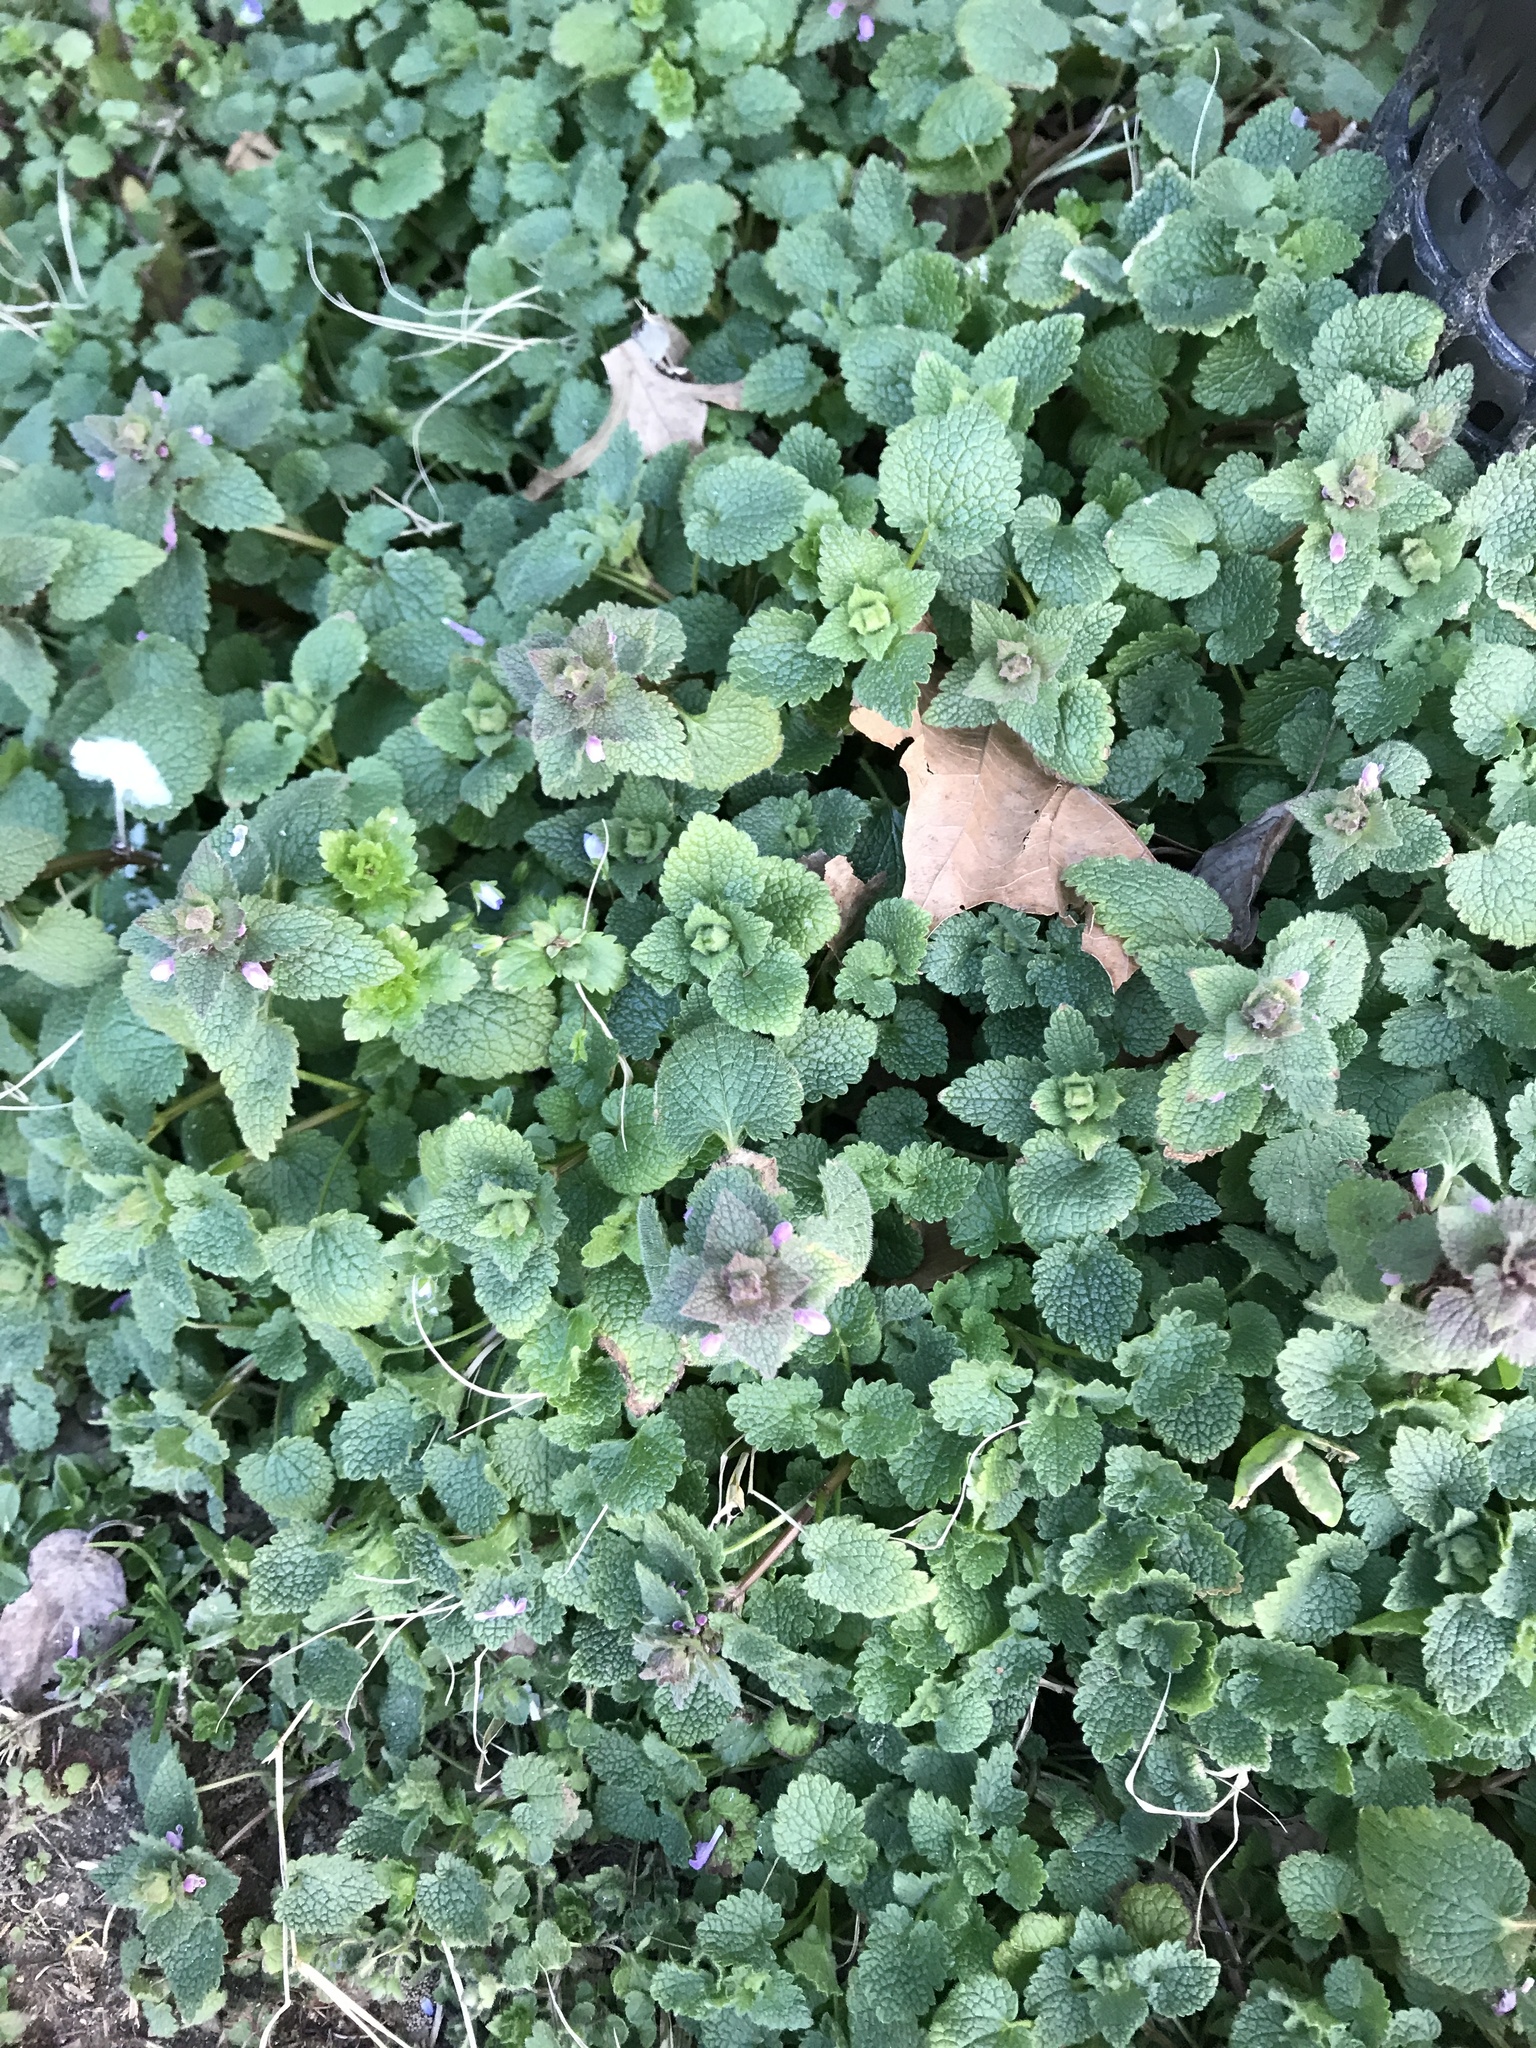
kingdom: Plantae
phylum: Tracheophyta
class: Magnoliopsida
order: Lamiales
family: Lamiaceae
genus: Lamium
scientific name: Lamium purpureum
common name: Red dead-nettle
